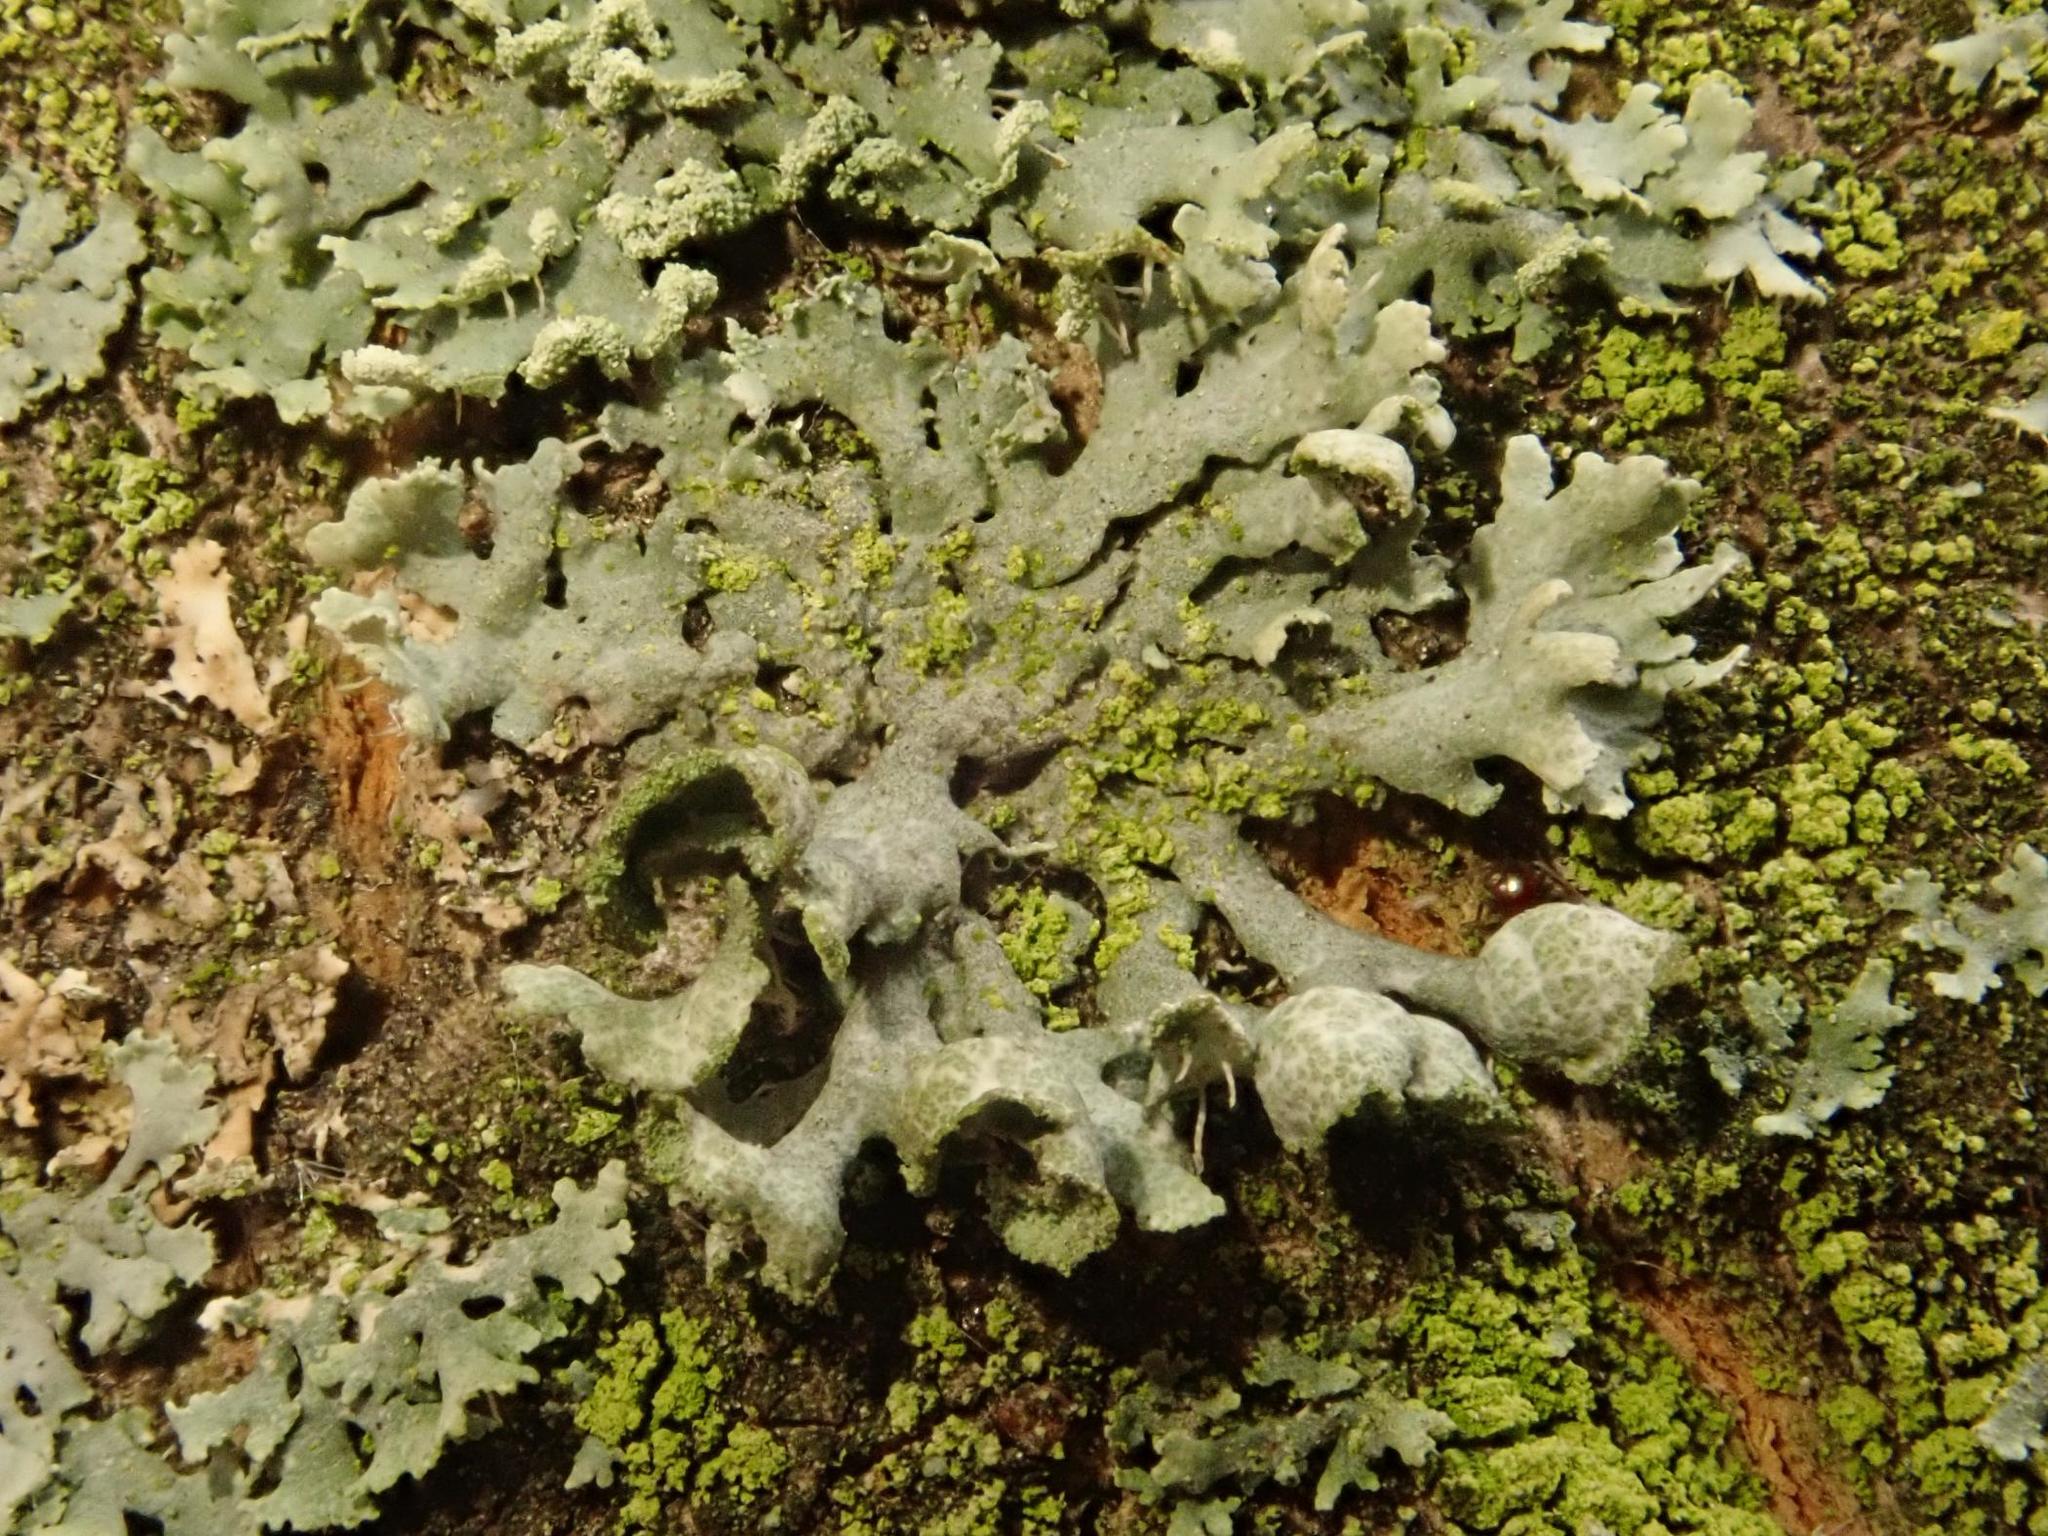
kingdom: Fungi
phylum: Ascomycota
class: Lecanoromycetes
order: Caliciales
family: Physciaceae
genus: Physcia
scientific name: Physcia adscendens
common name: Hooded rosette lichen
